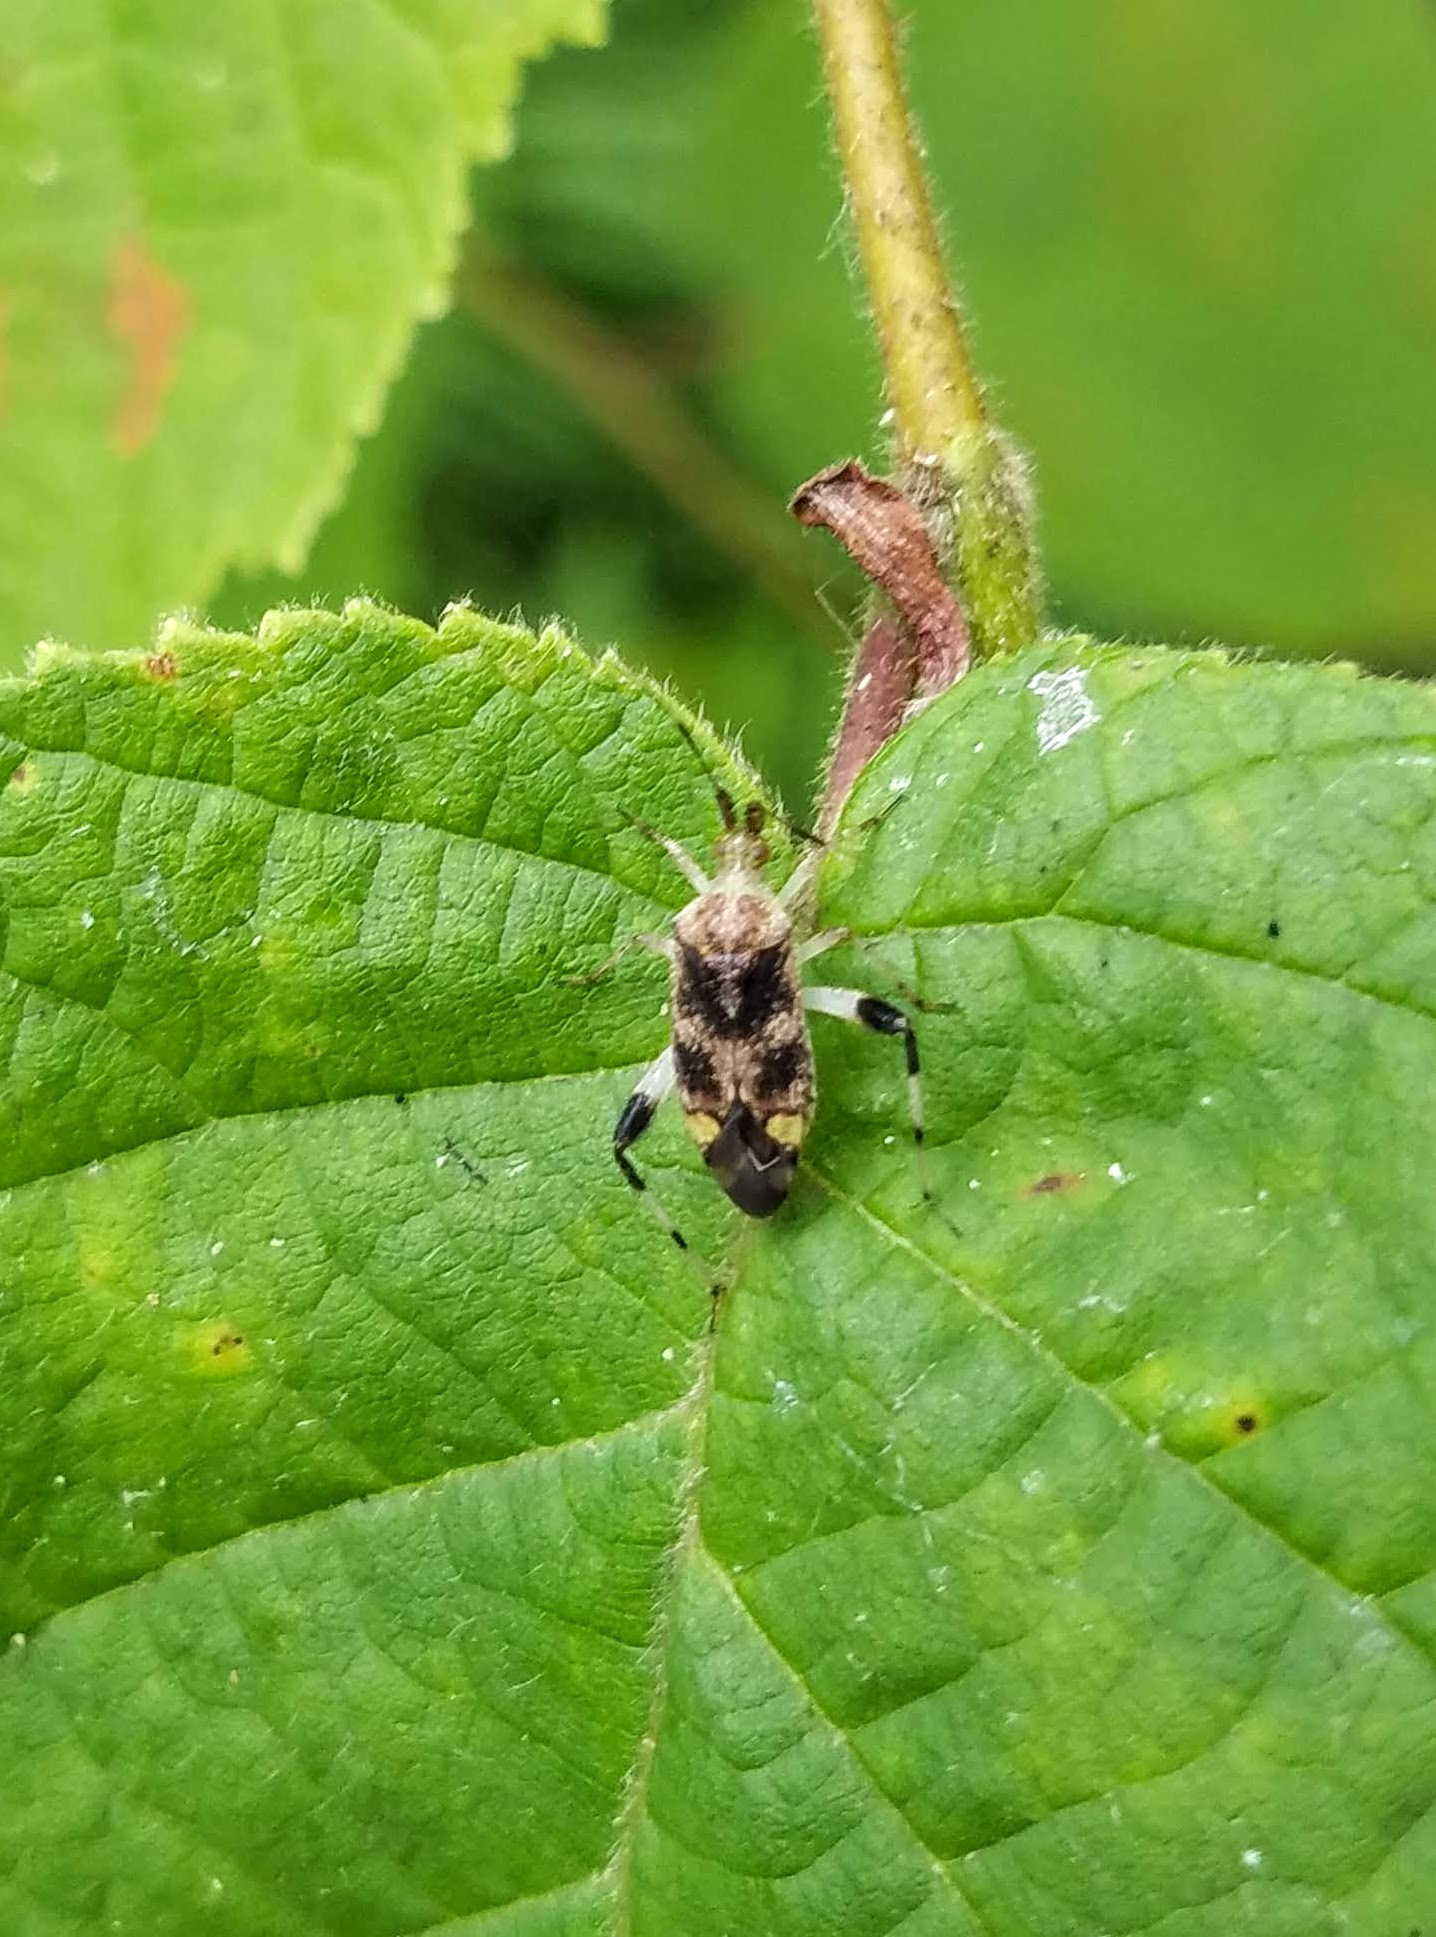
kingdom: Animalia
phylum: Arthropoda
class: Insecta
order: Hemiptera
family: Miridae
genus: Neurocolpus
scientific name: Neurocolpus jessiae
